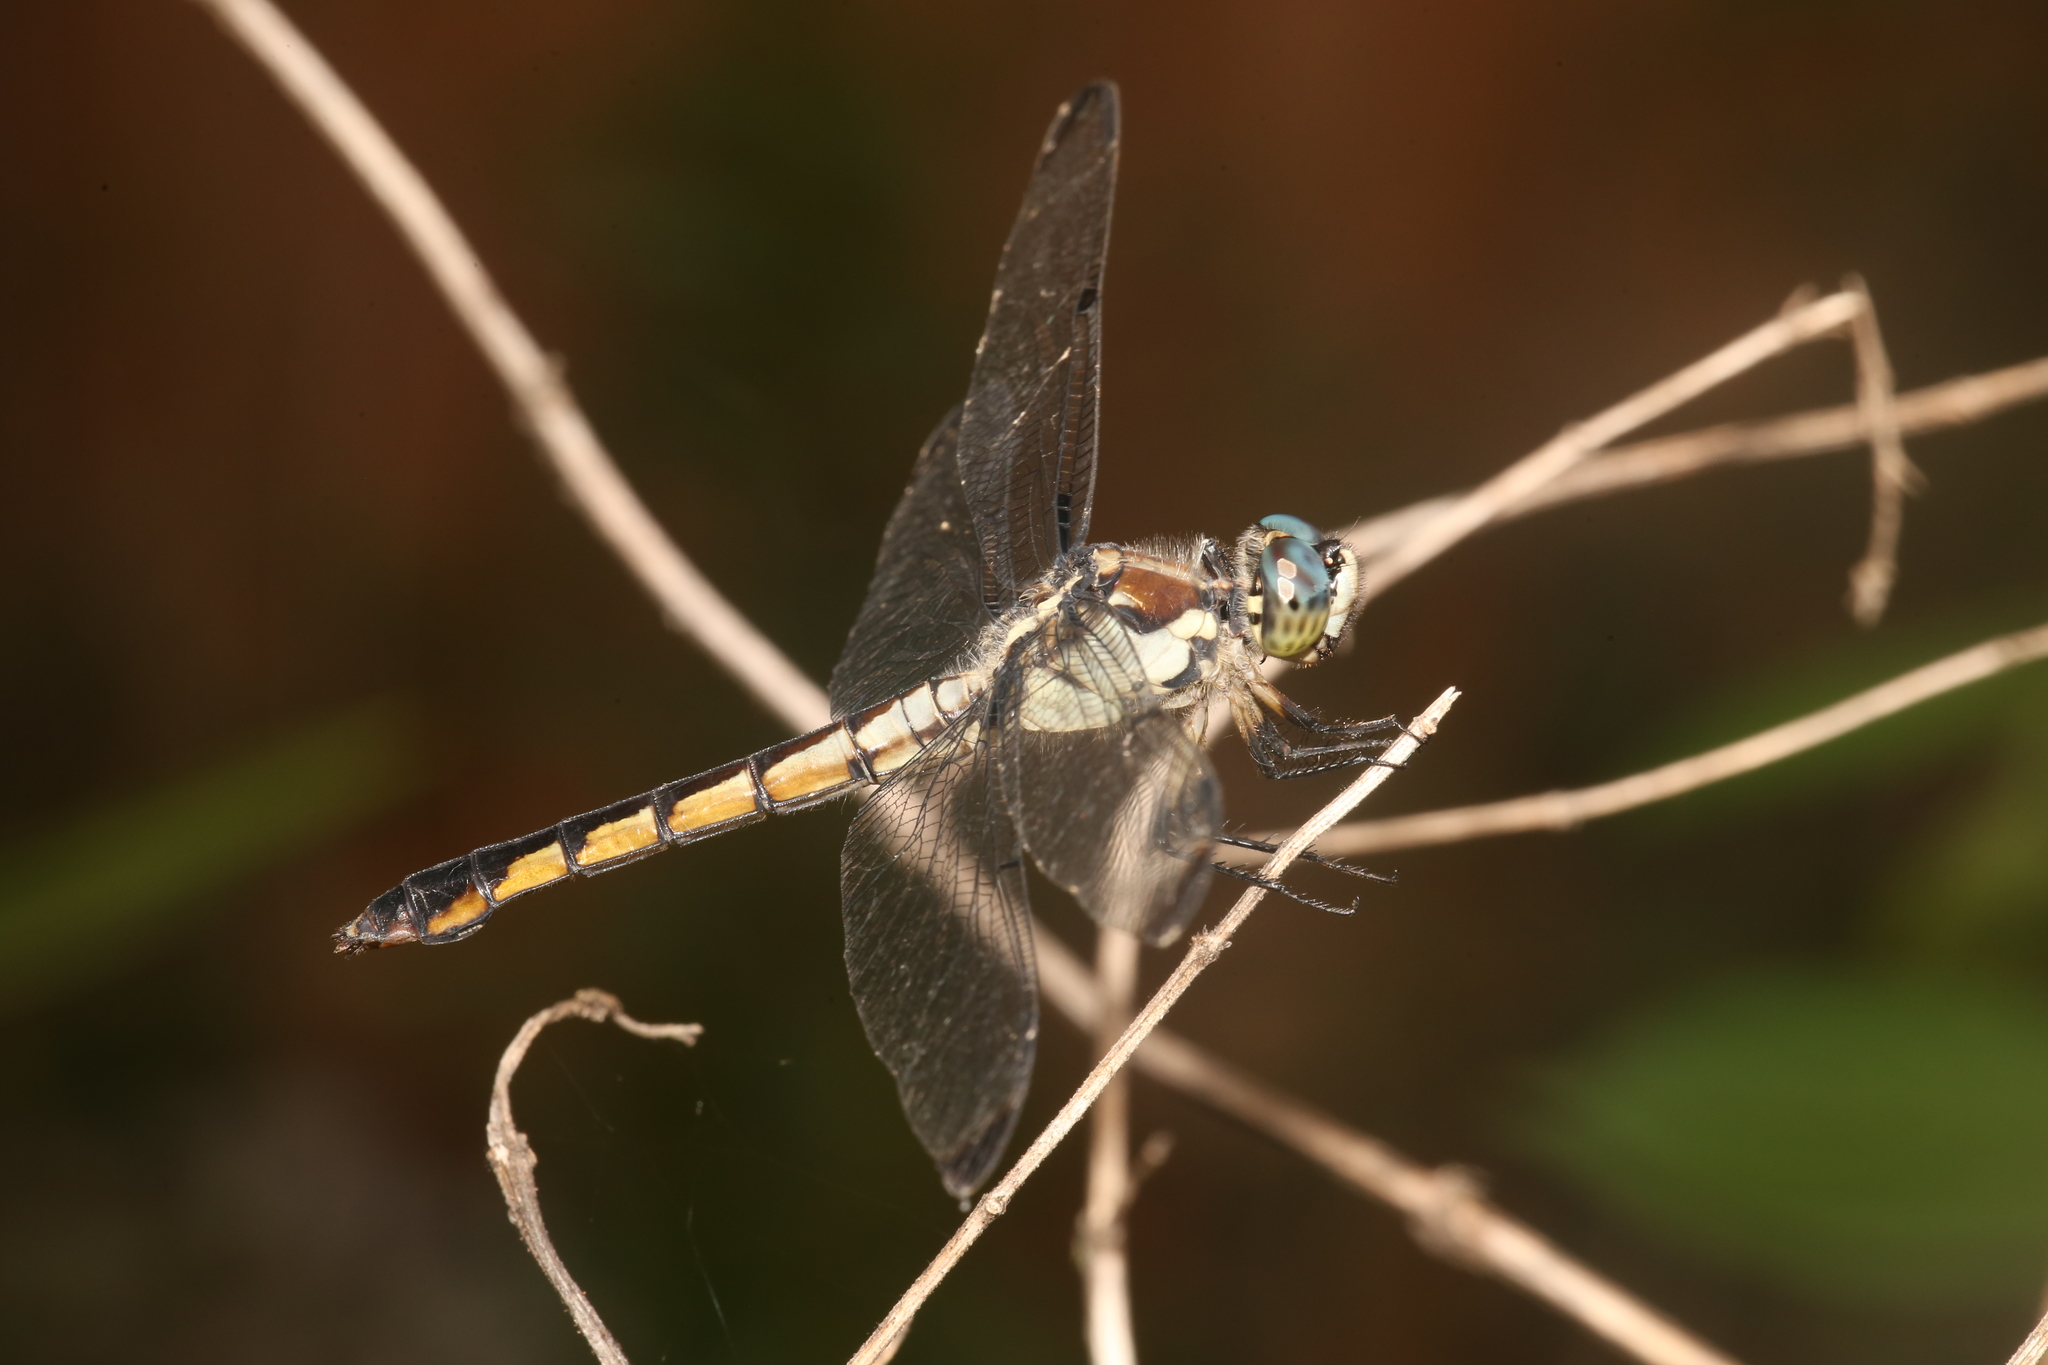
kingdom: Animalia
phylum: Arthropoda
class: Insecta
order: Odonata
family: Libellulidae
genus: Libellula
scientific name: Libellula vibrans
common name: Great blue skimmer
